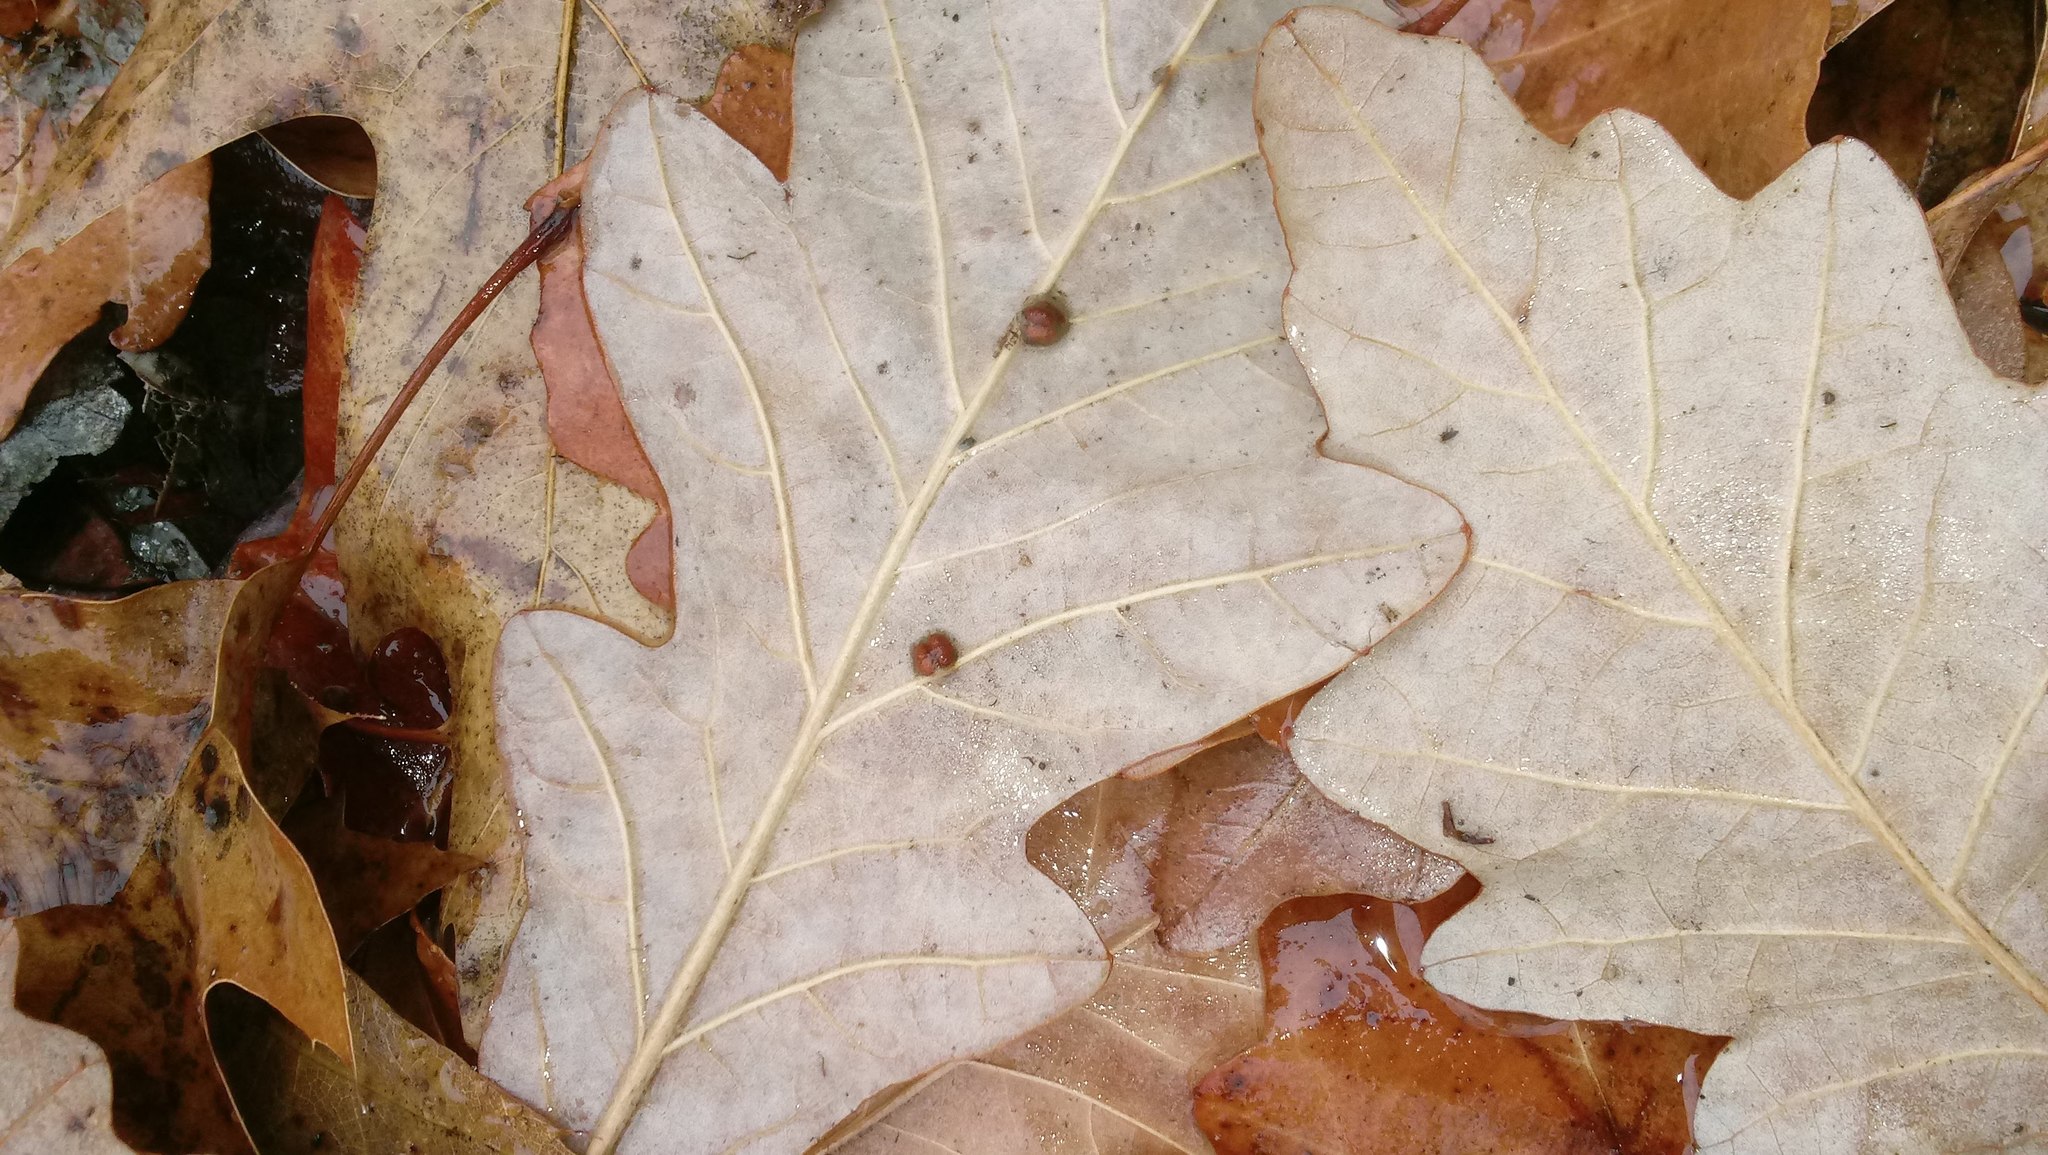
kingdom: Animalia
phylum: Arthropoda
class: Insecta
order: Hymenoptera
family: Cynipidae
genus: Andricus
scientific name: Andricus Druon ignotum
